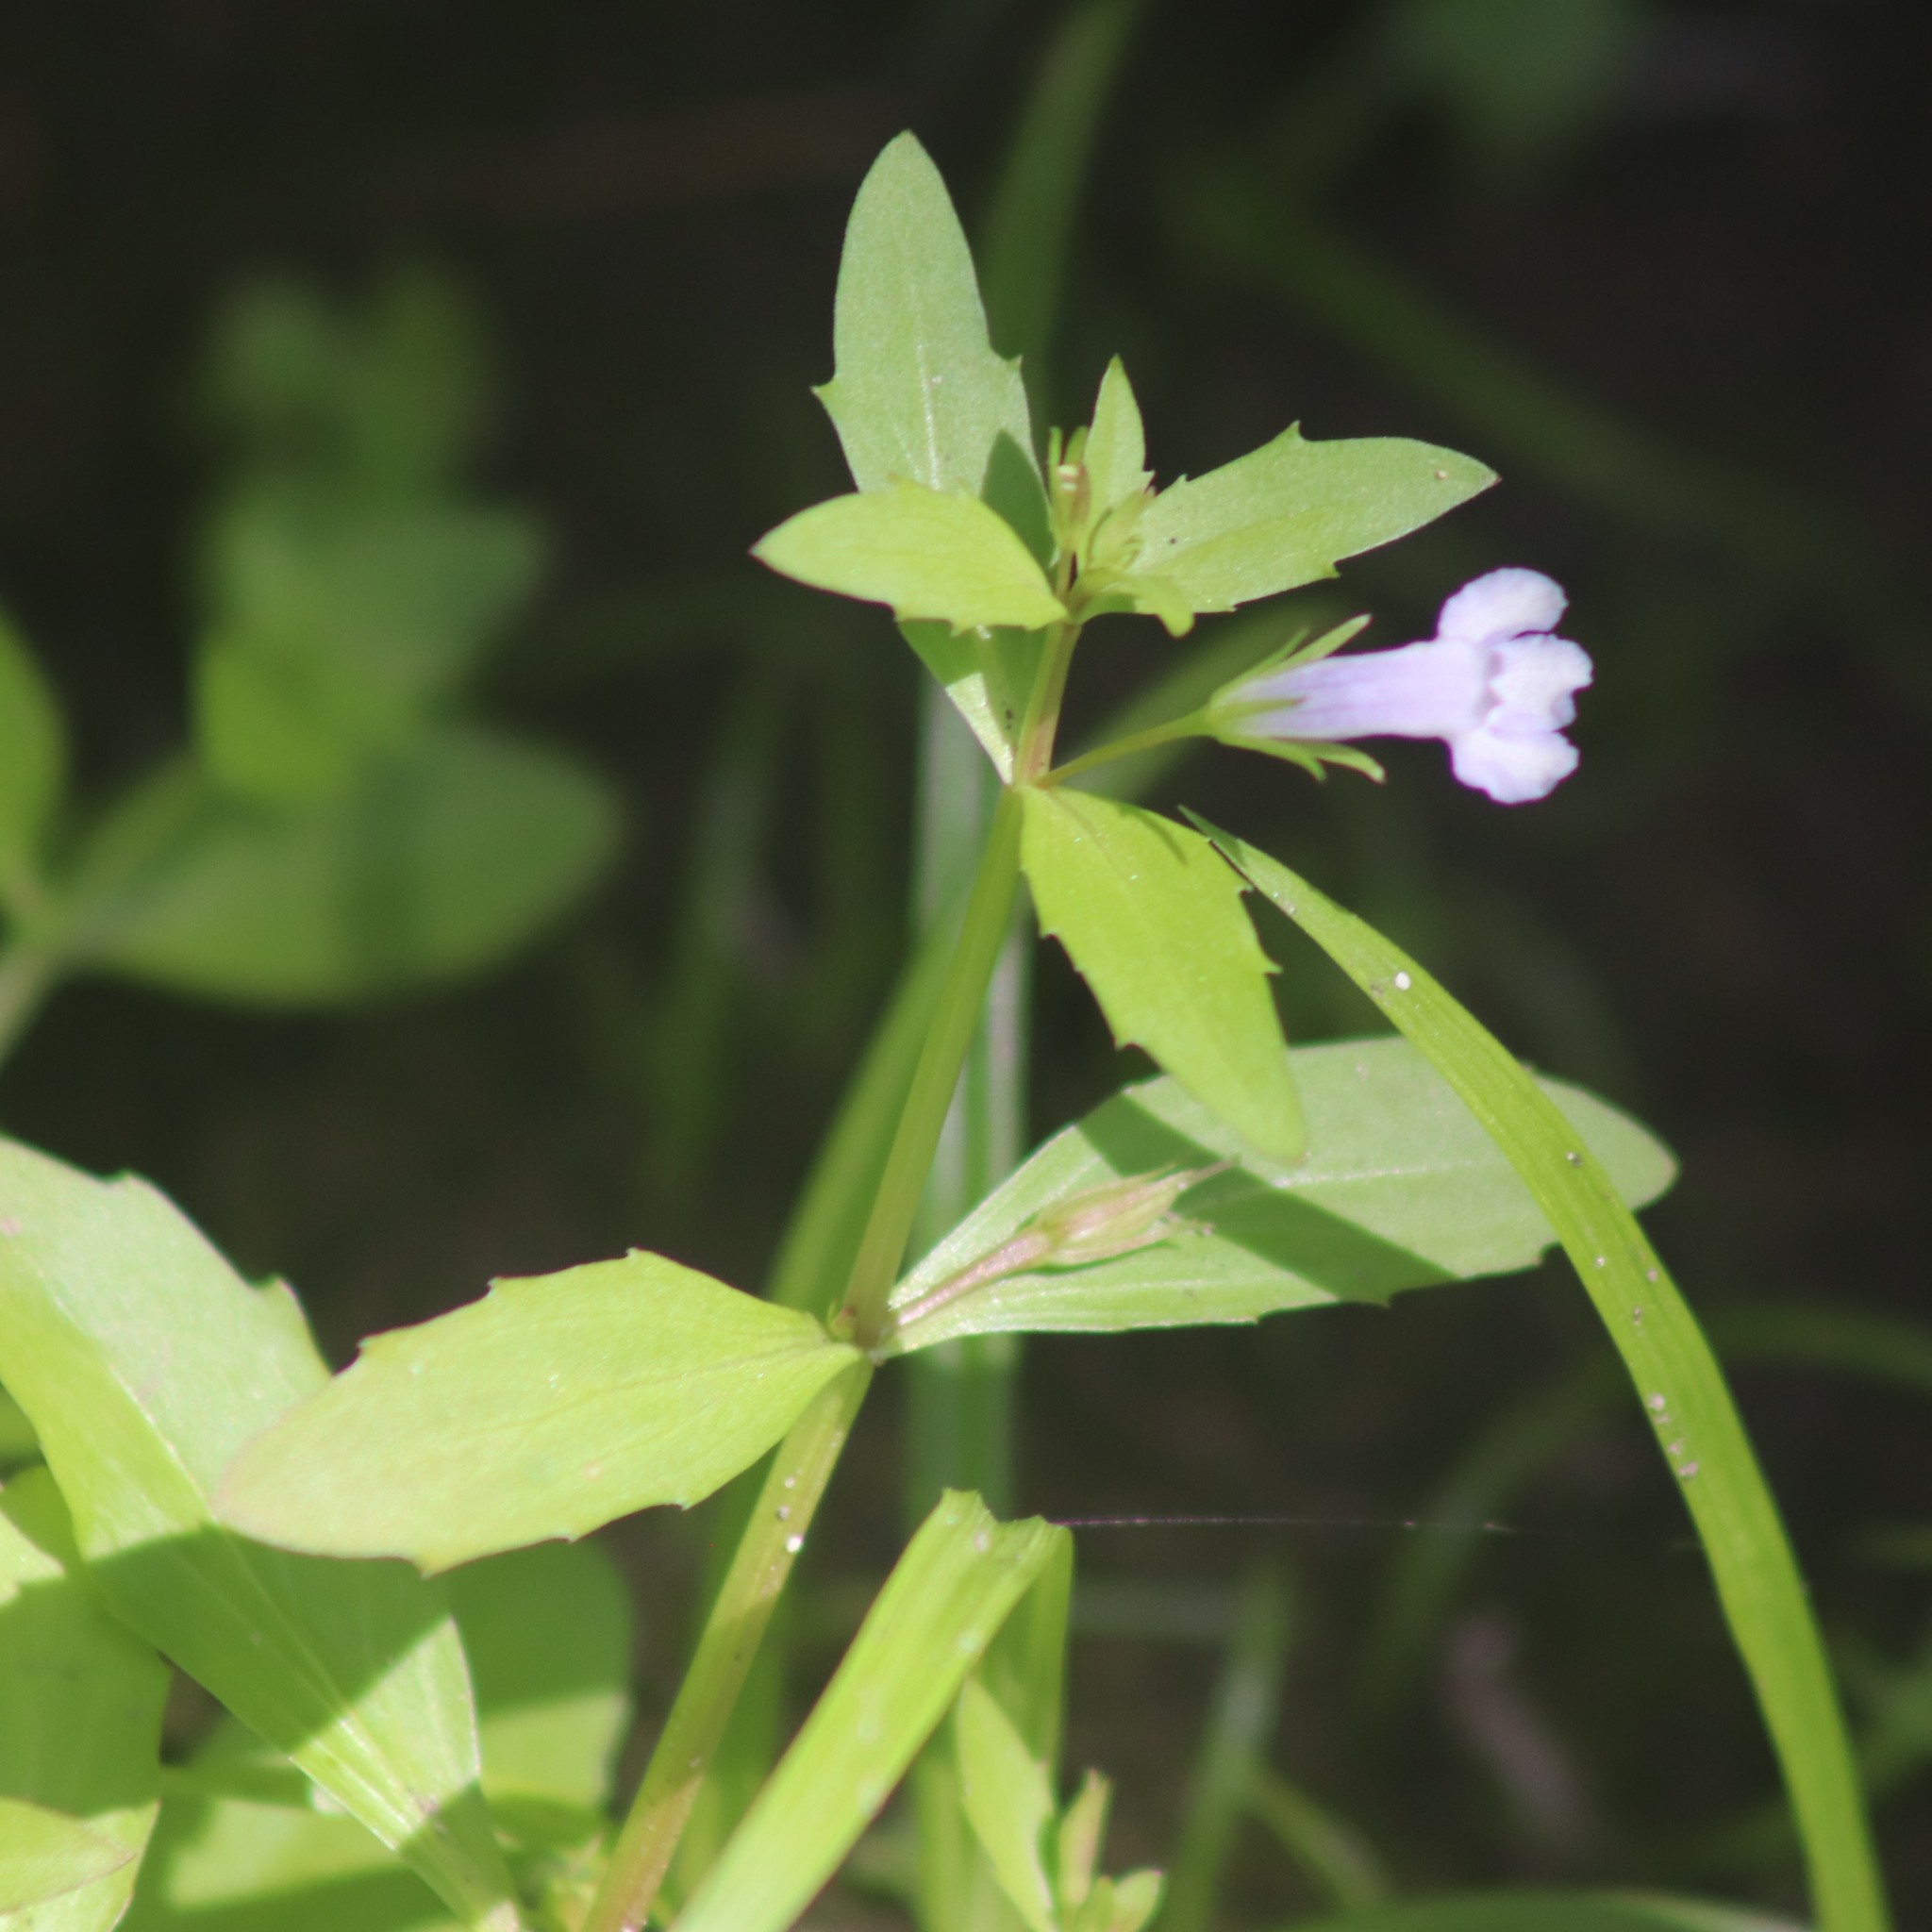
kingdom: Plantae
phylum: Tracheophyta
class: Magnoliopsida
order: Lamiales
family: Linderniaceae
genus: Lindernia
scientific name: Lindernia dubia
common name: Annual false pimpernel
